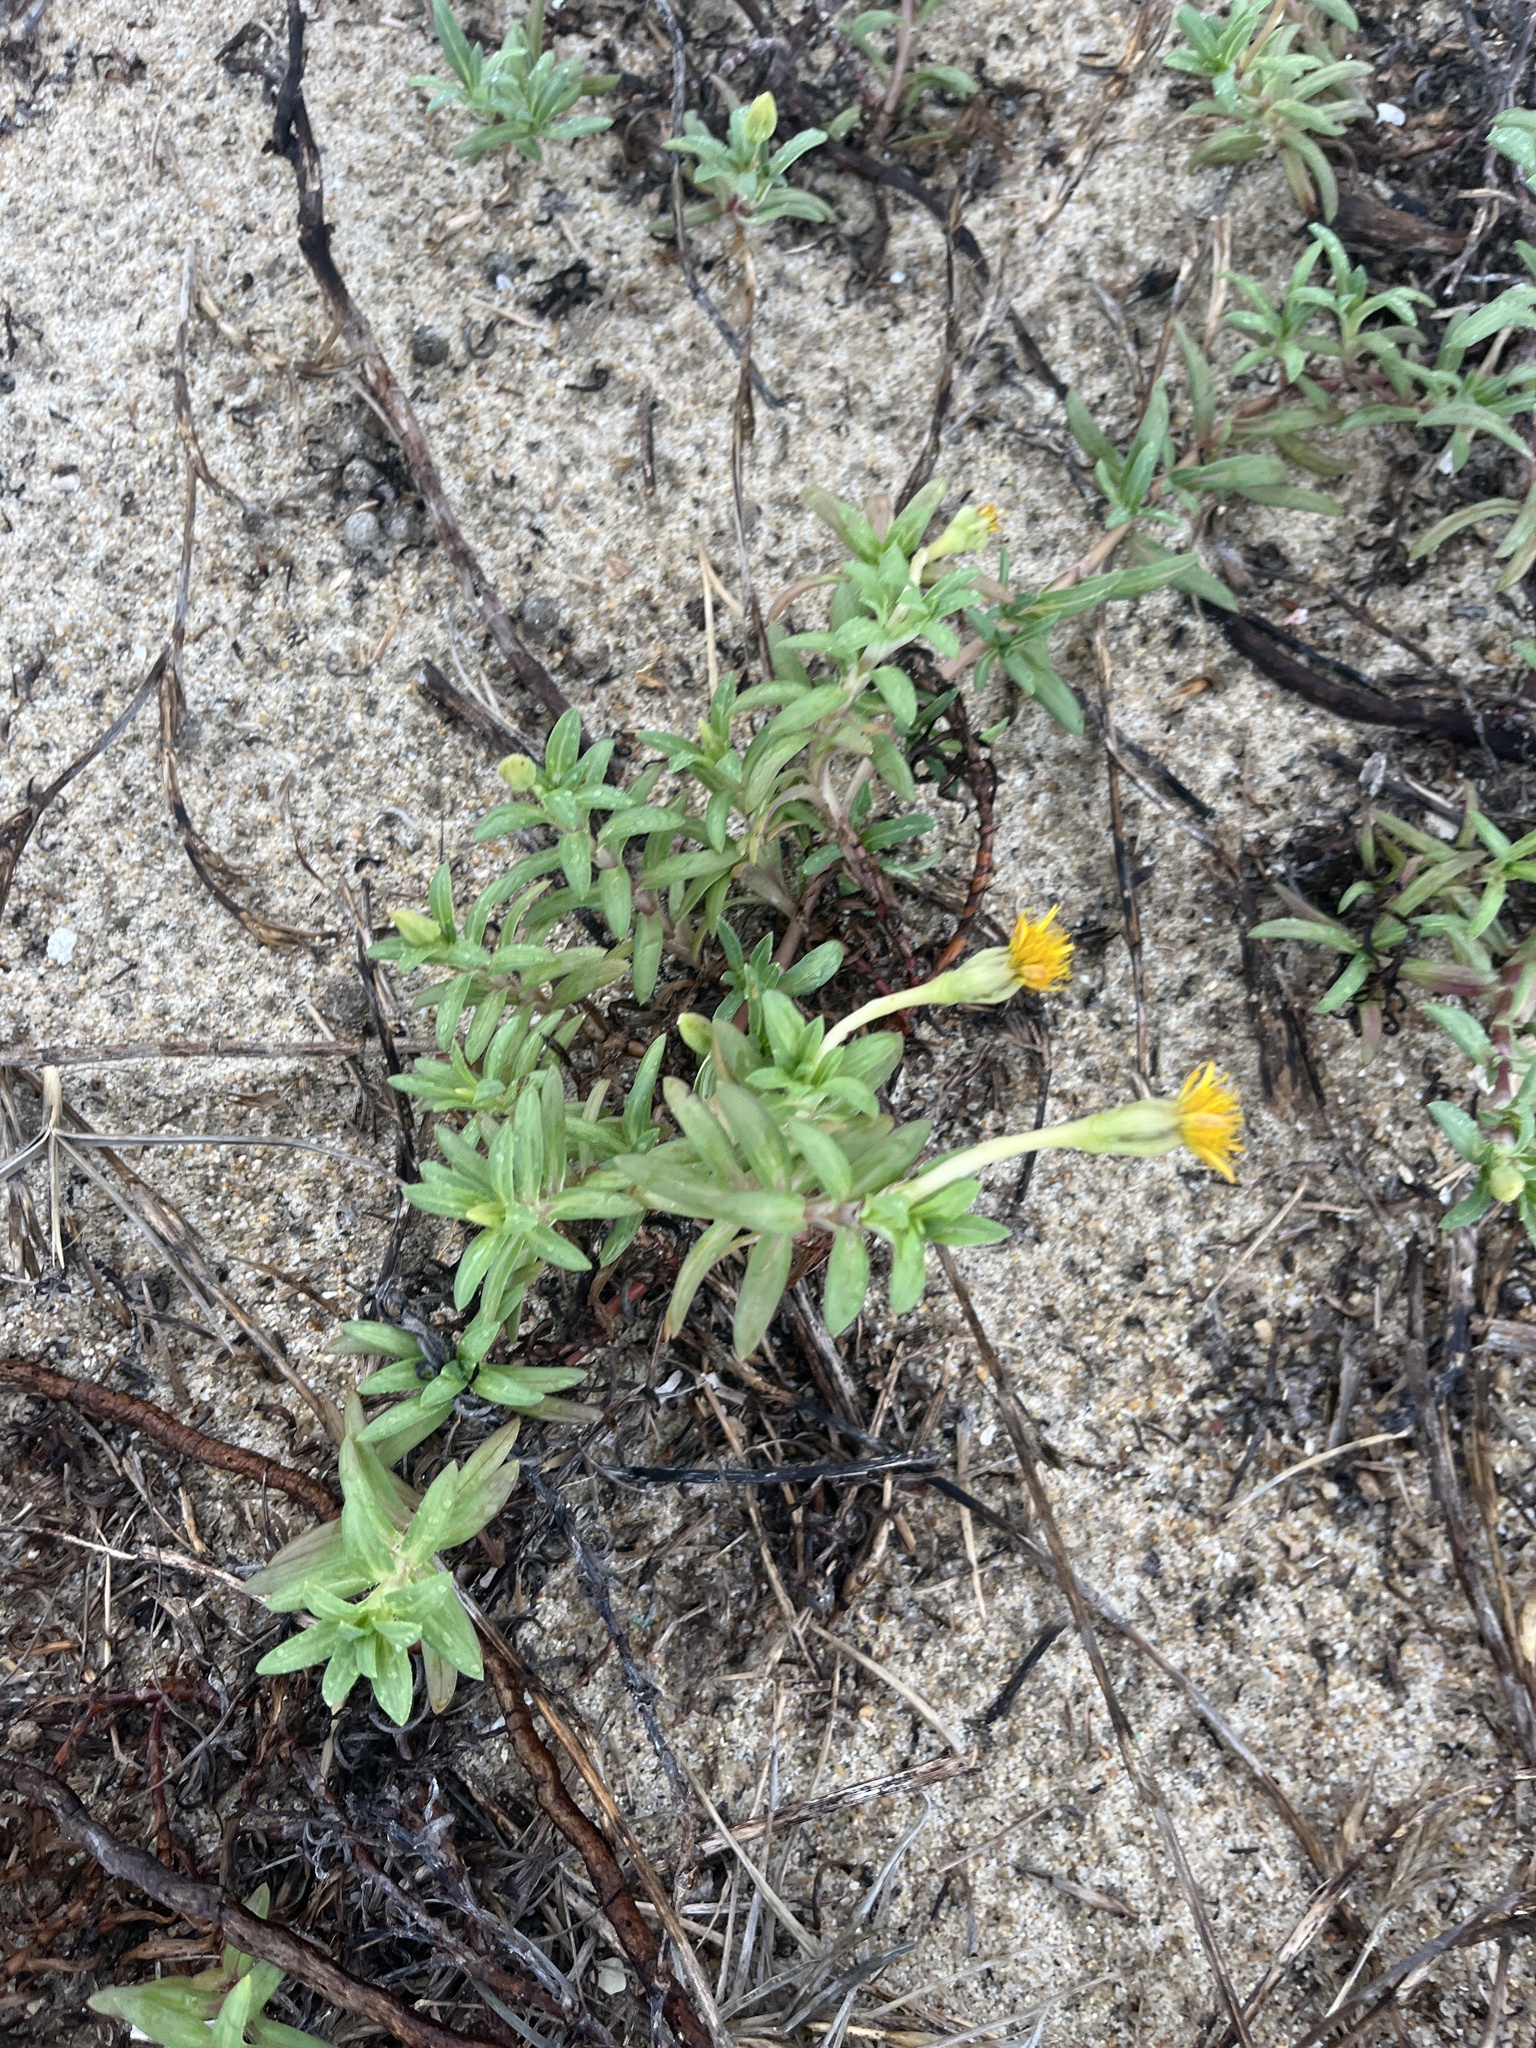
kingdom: Plantae
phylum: Tracheophyta
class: Magnoliopsida
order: Asterales
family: Asteraceae
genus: Pectis
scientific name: Pectis multiflosculosa
